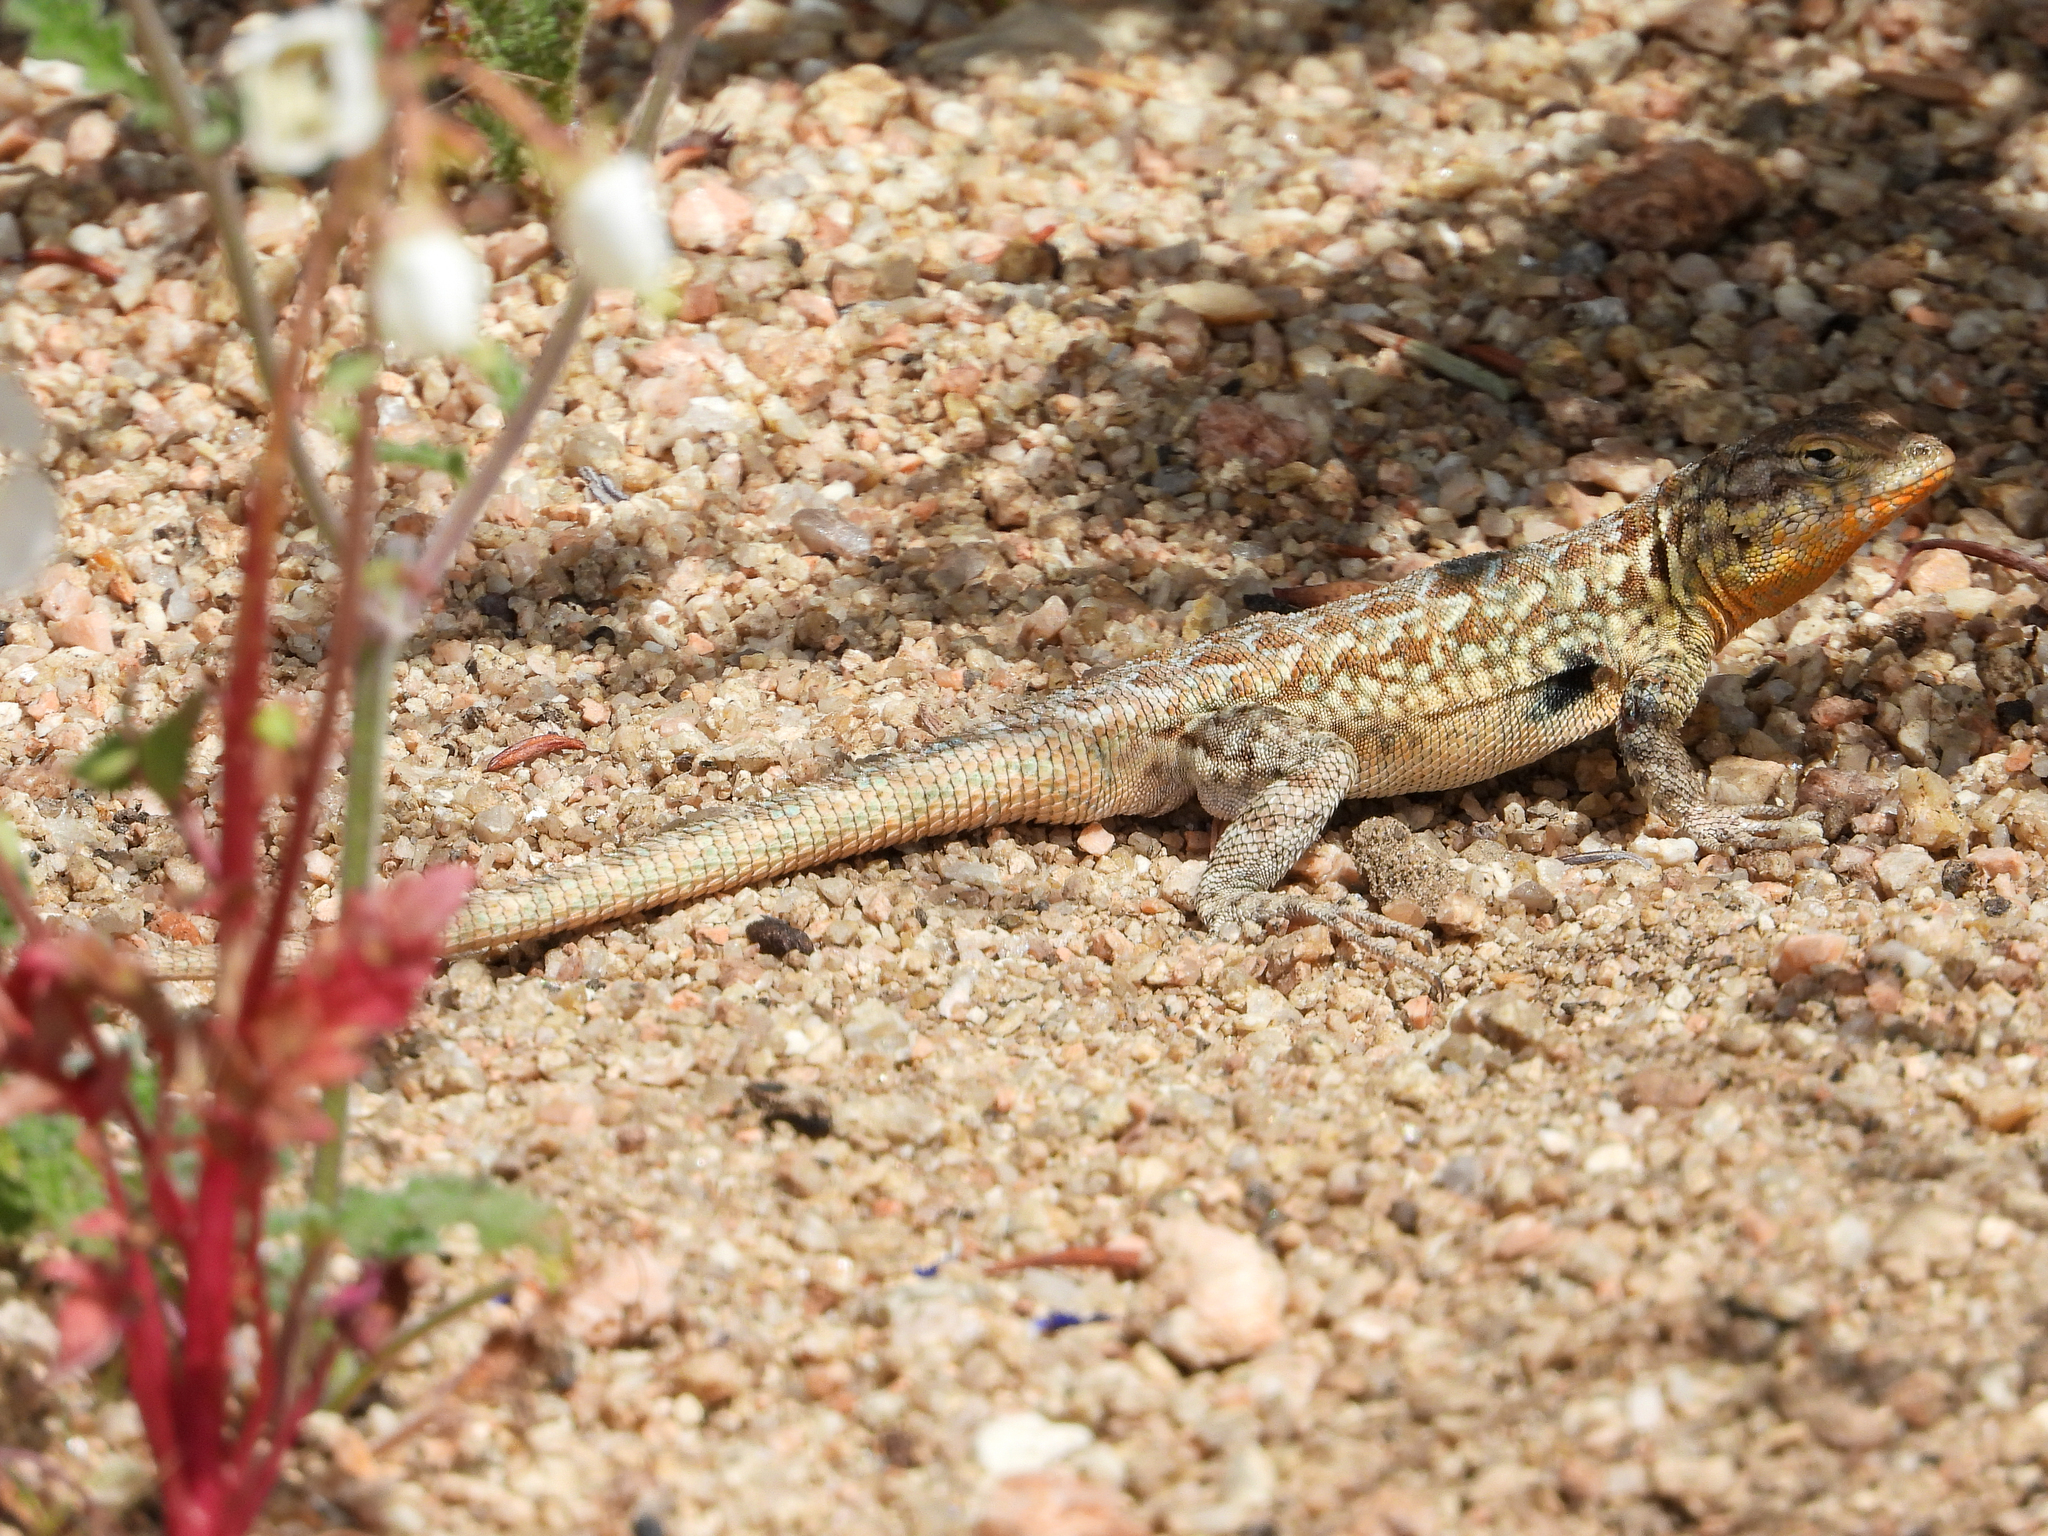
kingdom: Animalia
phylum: Chordata
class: Squamata
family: Phrynosomatidae
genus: Uta
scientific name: Uta stansburiana
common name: Side-blotched lizard
